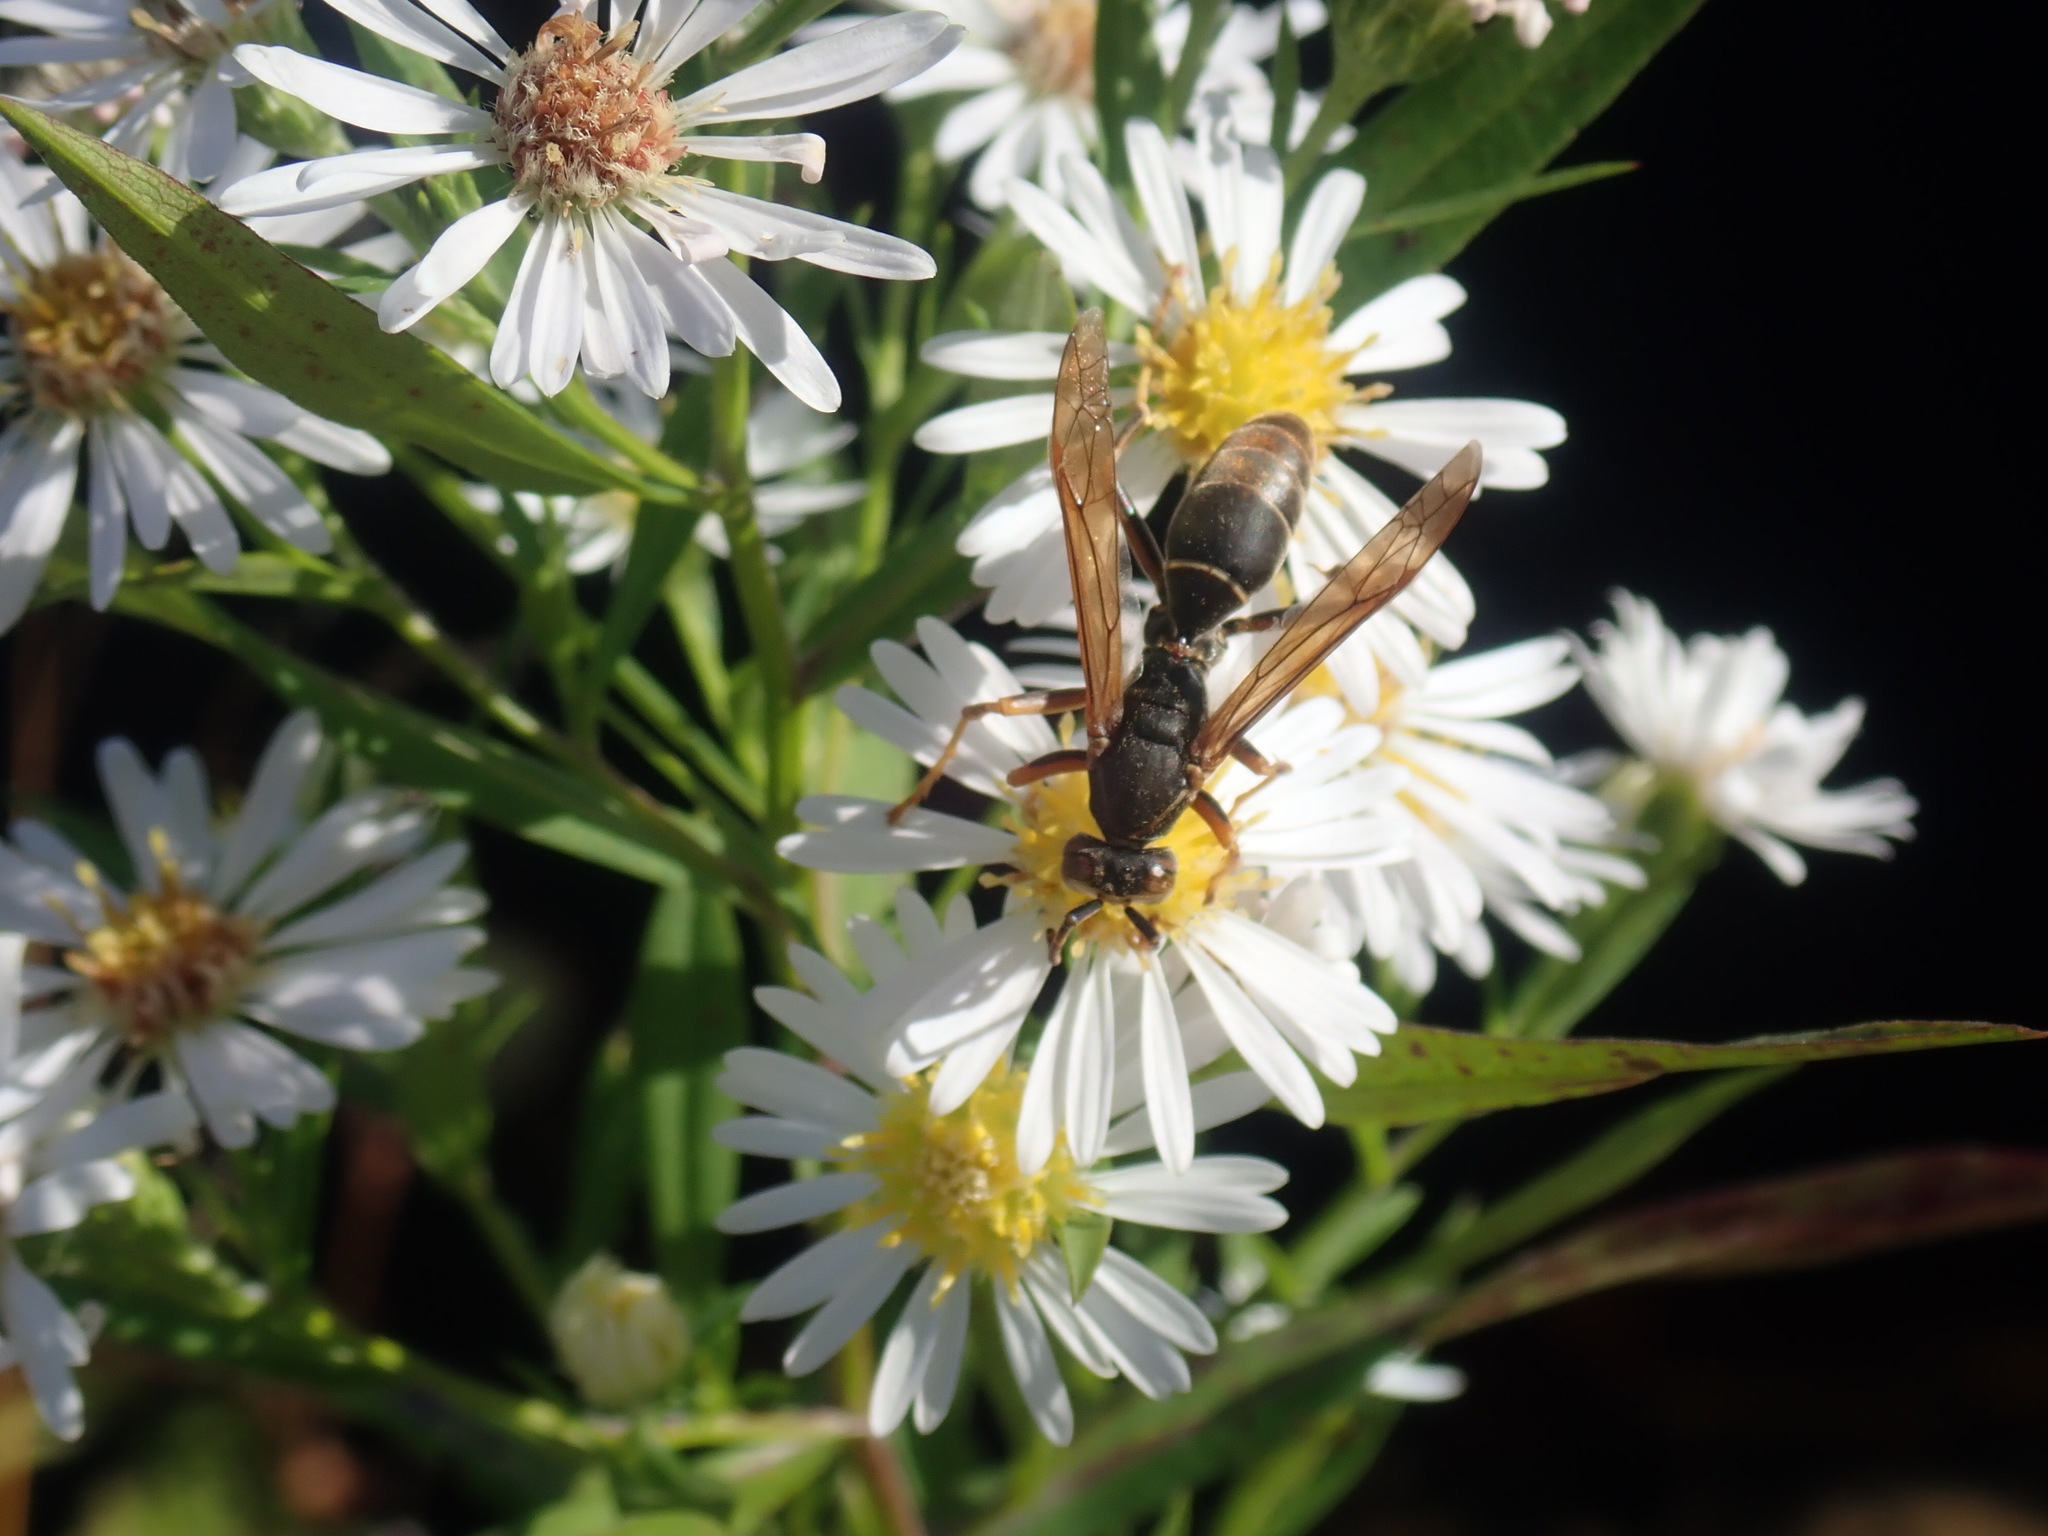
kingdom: Animalia
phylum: Arthropoda
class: Insecta
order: Hymenoptera
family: Eumenidae
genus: Polistes
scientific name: Polistes fuscatus
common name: Dark paper wasp
